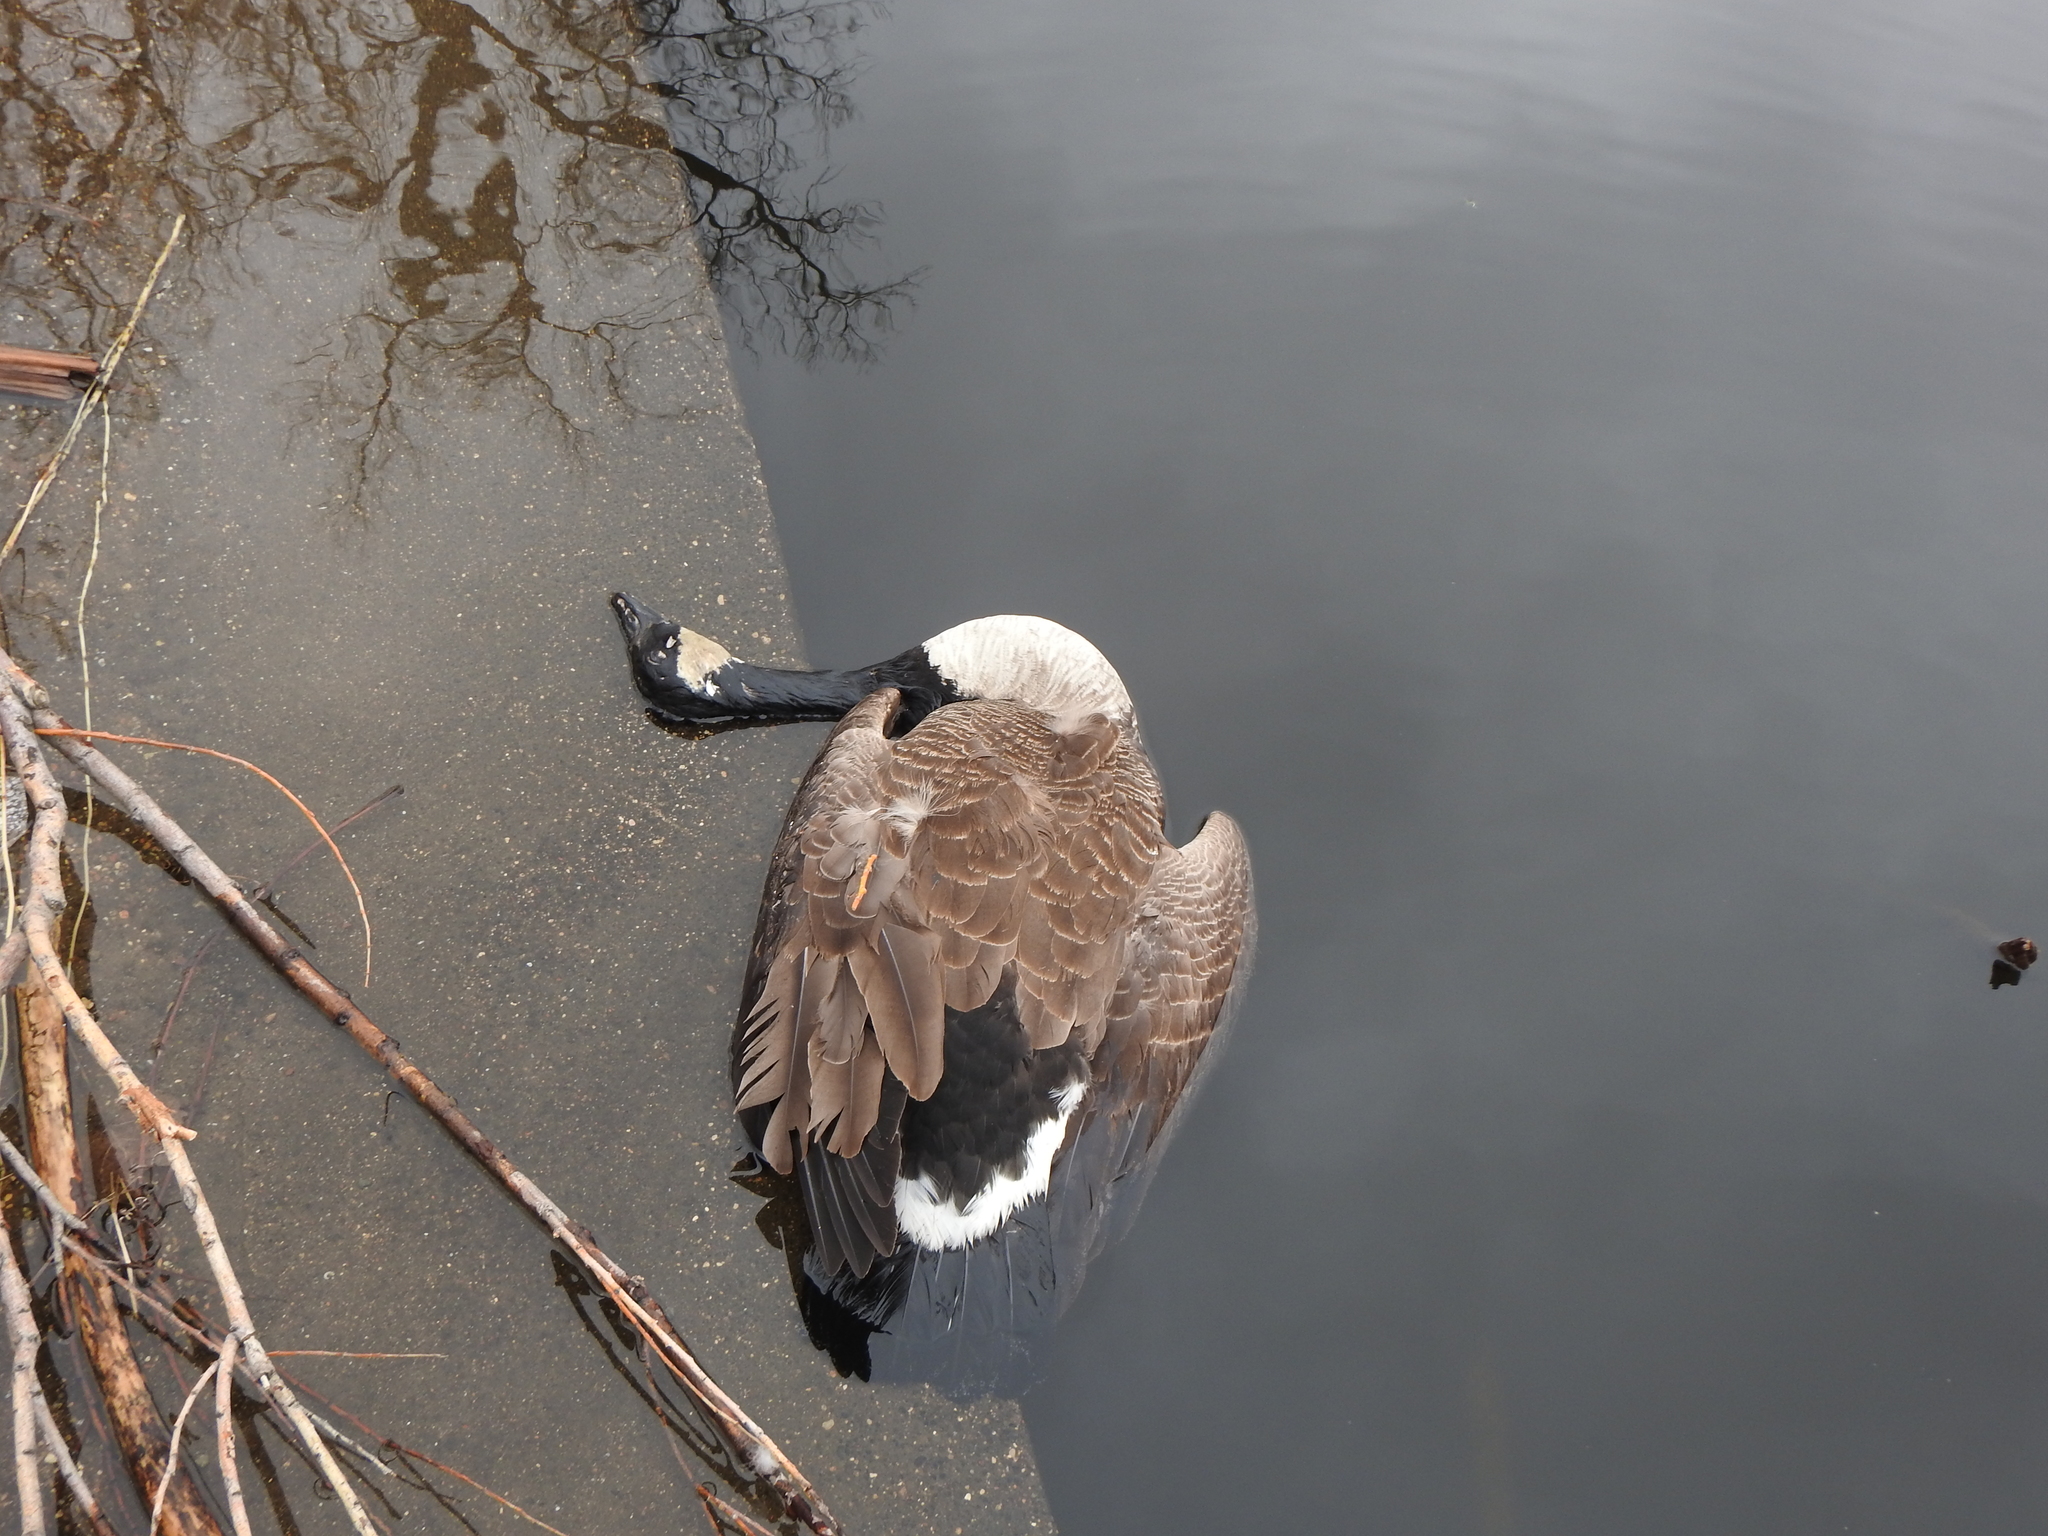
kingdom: Animalia
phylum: Chordata
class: Aves
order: Anseriformes
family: Anatidae
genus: Branta
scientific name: Branta canadensis
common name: Canada goose
